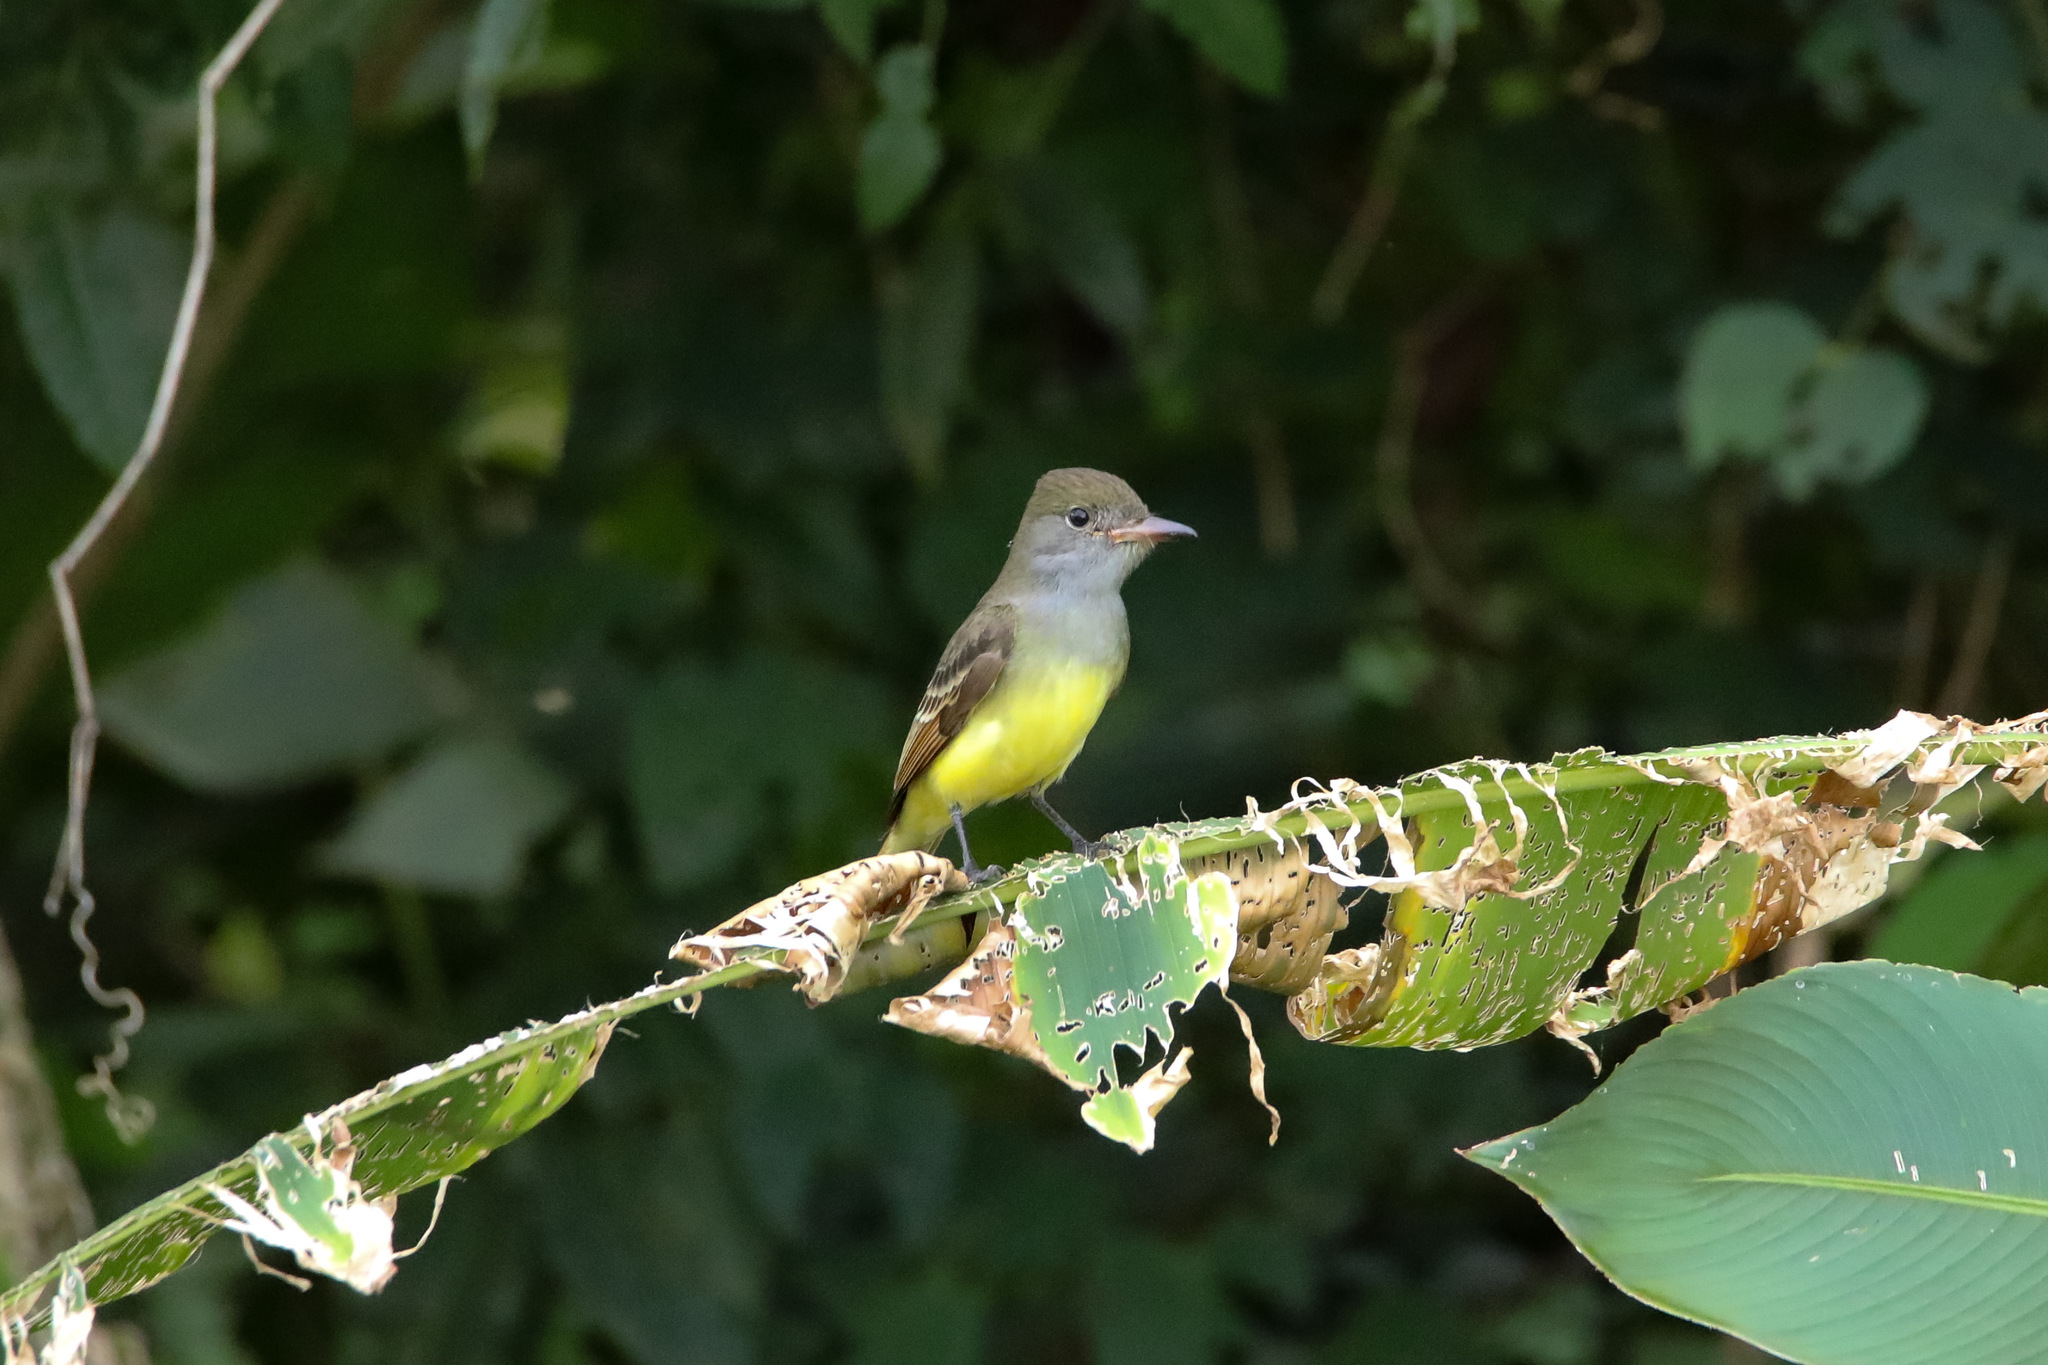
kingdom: Animalia
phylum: Chordata
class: Aves
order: Passeriformes
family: Tyrannidae
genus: Myiarchus
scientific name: Myiarchus crinitus
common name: Great crested flycatcher
